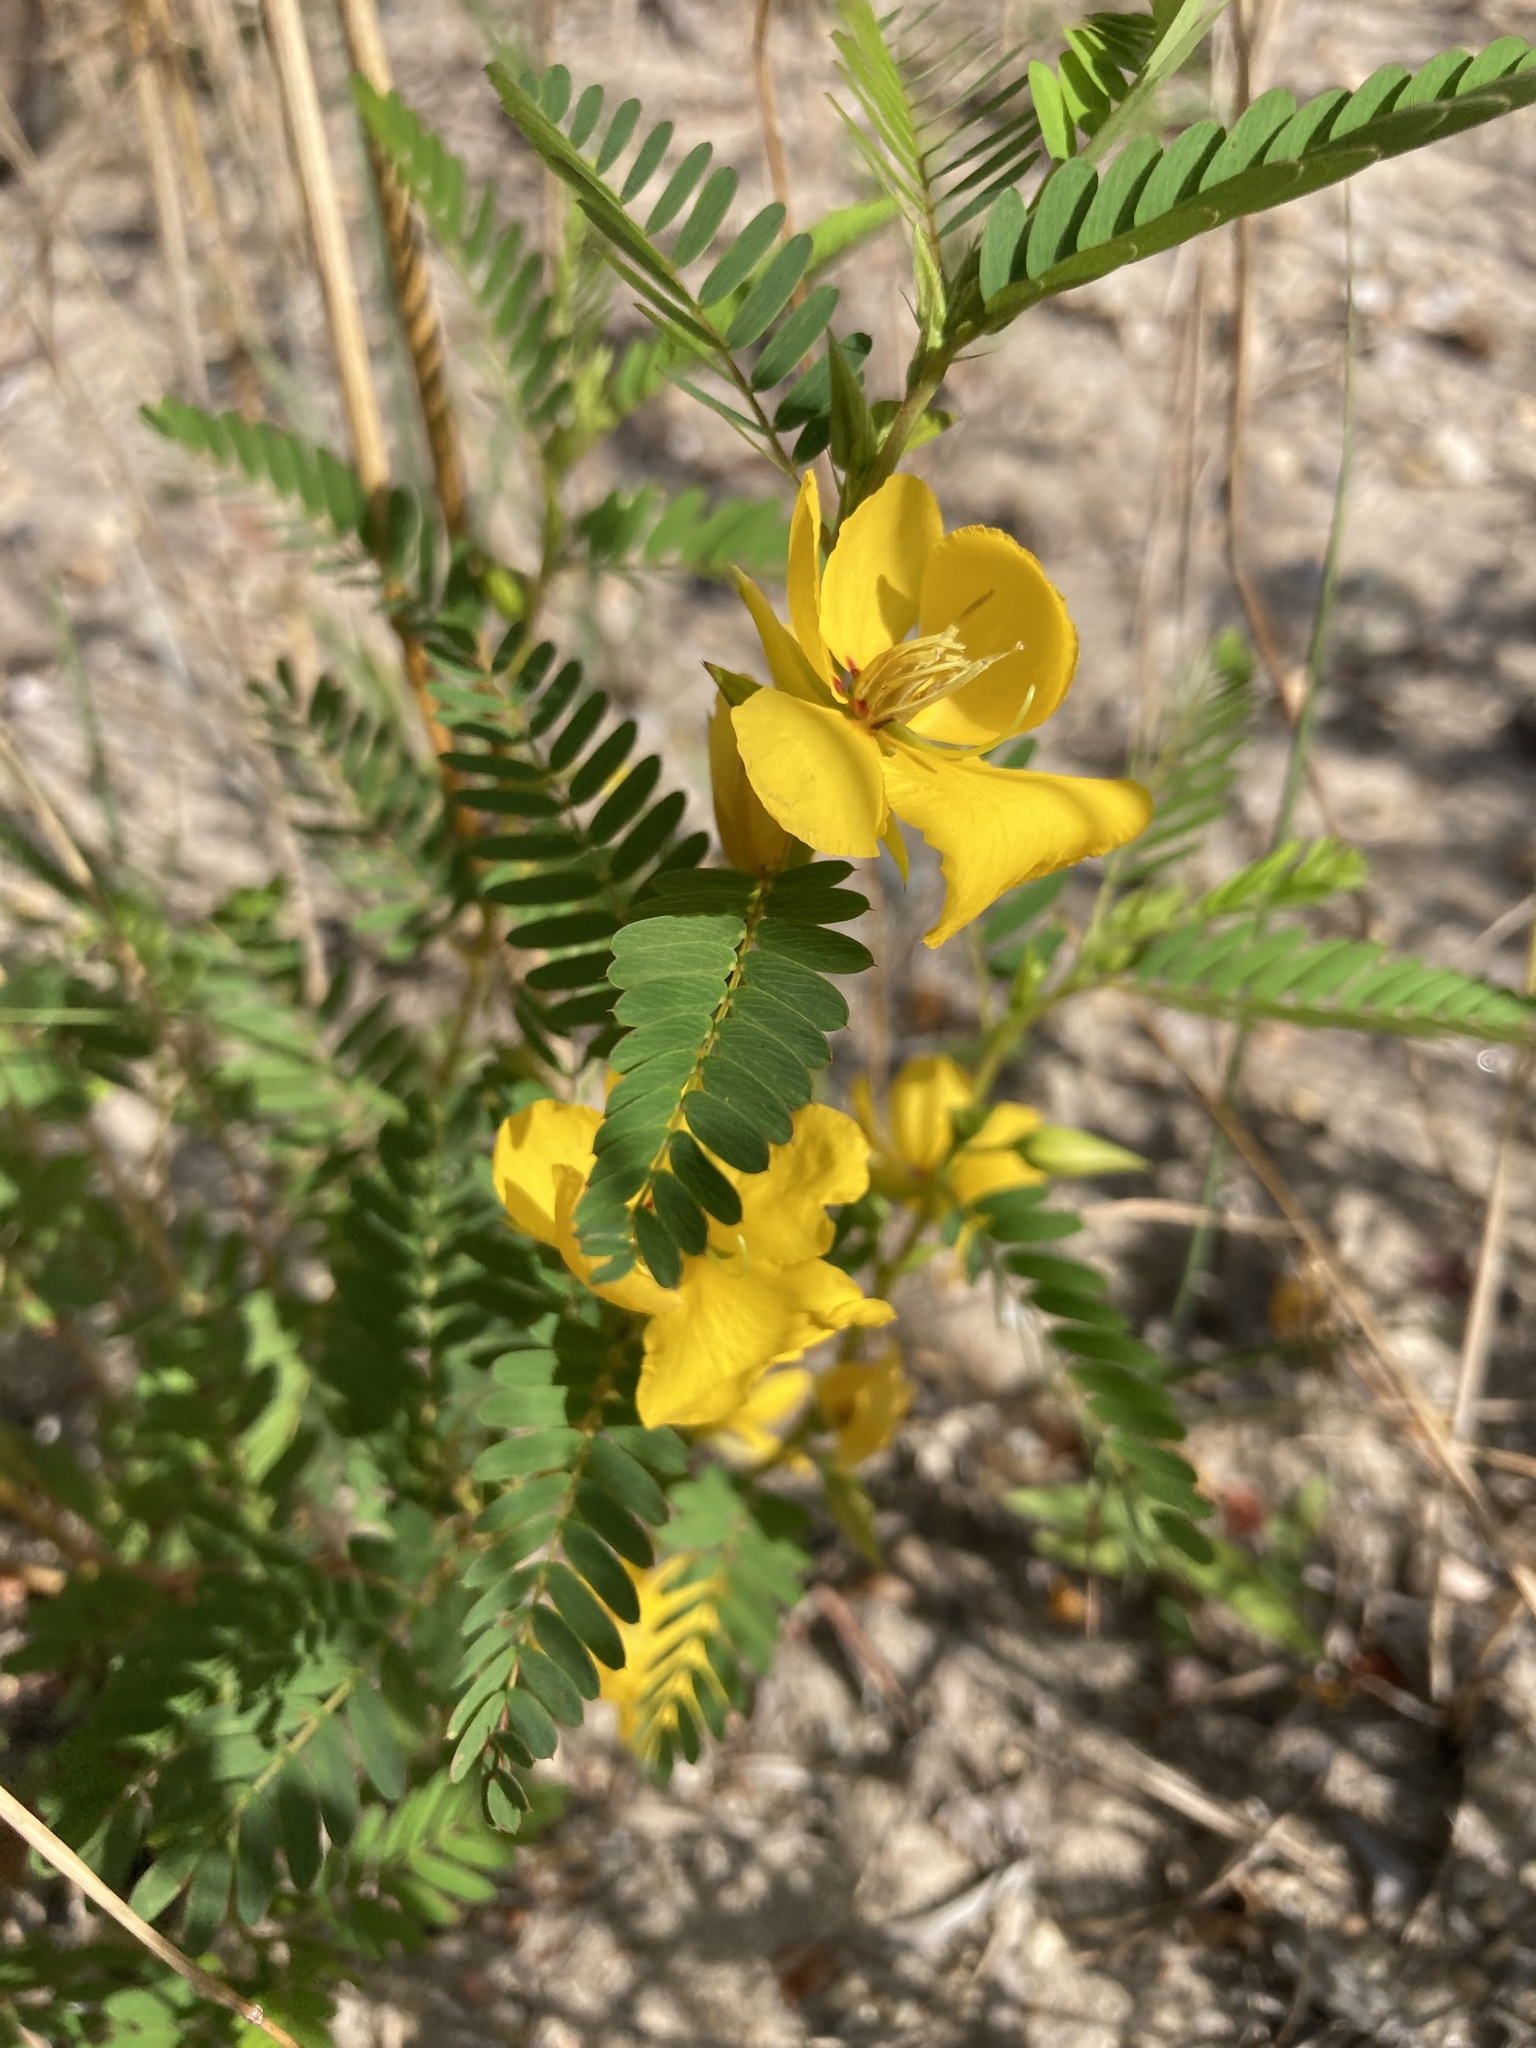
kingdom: Plantae
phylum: Tracheophyta
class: Magnoliopsida
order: Fabales
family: Fabaceae
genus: Chamaecrista
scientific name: Chamaecrista fasciculata
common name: Golden cassia
